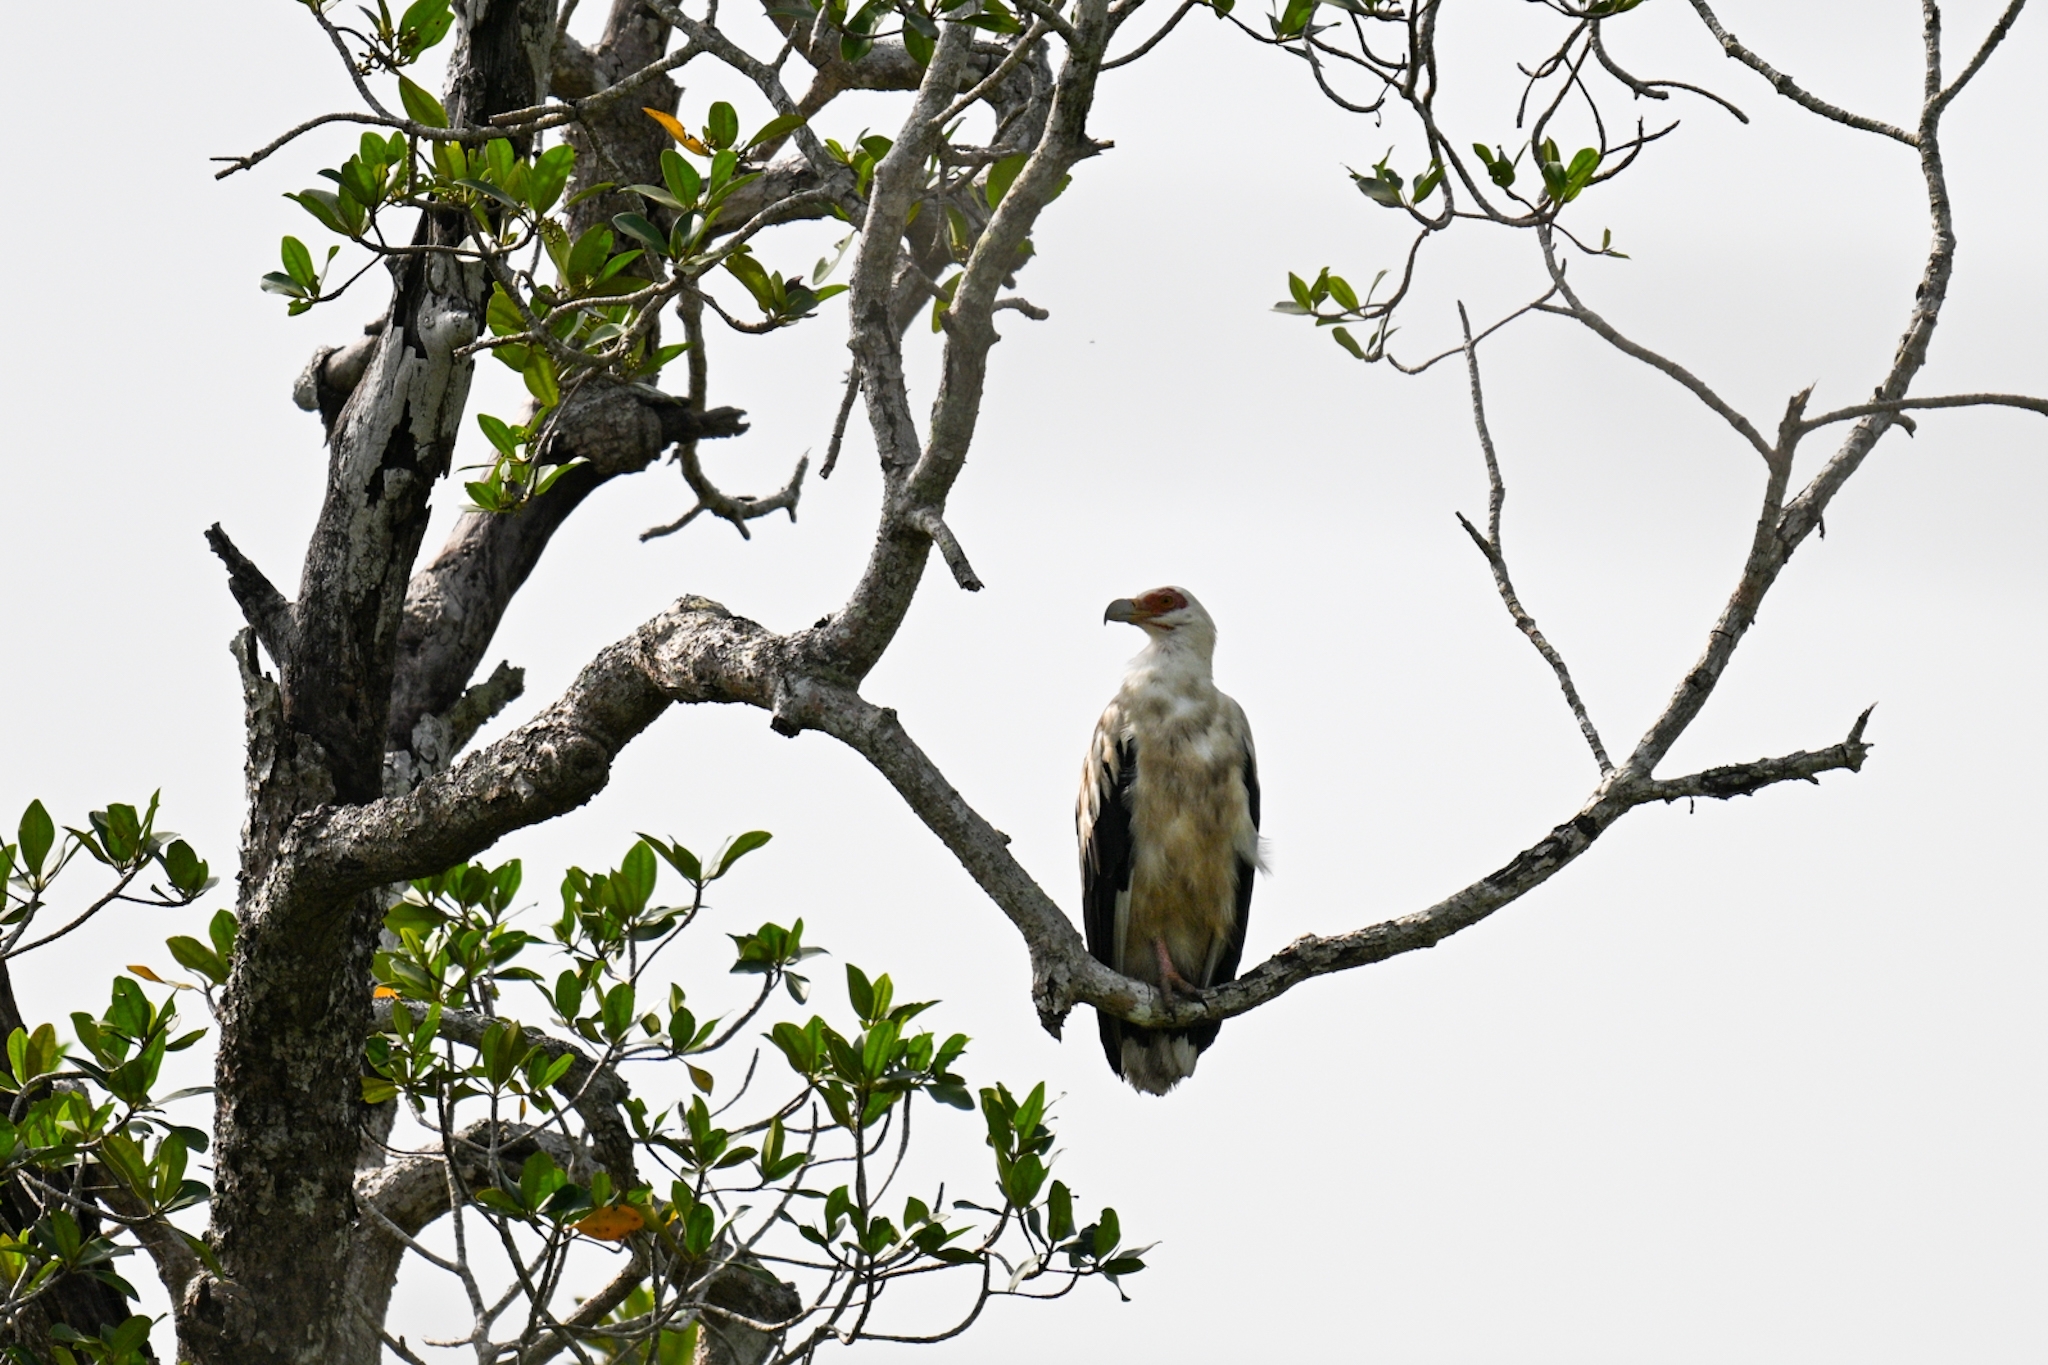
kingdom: Animalia
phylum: Chordata
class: Aves
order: Accipitriformes
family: Accipitridae
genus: Gypohierax
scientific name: Gypohierax angolensis
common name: Palm-nut vulture
